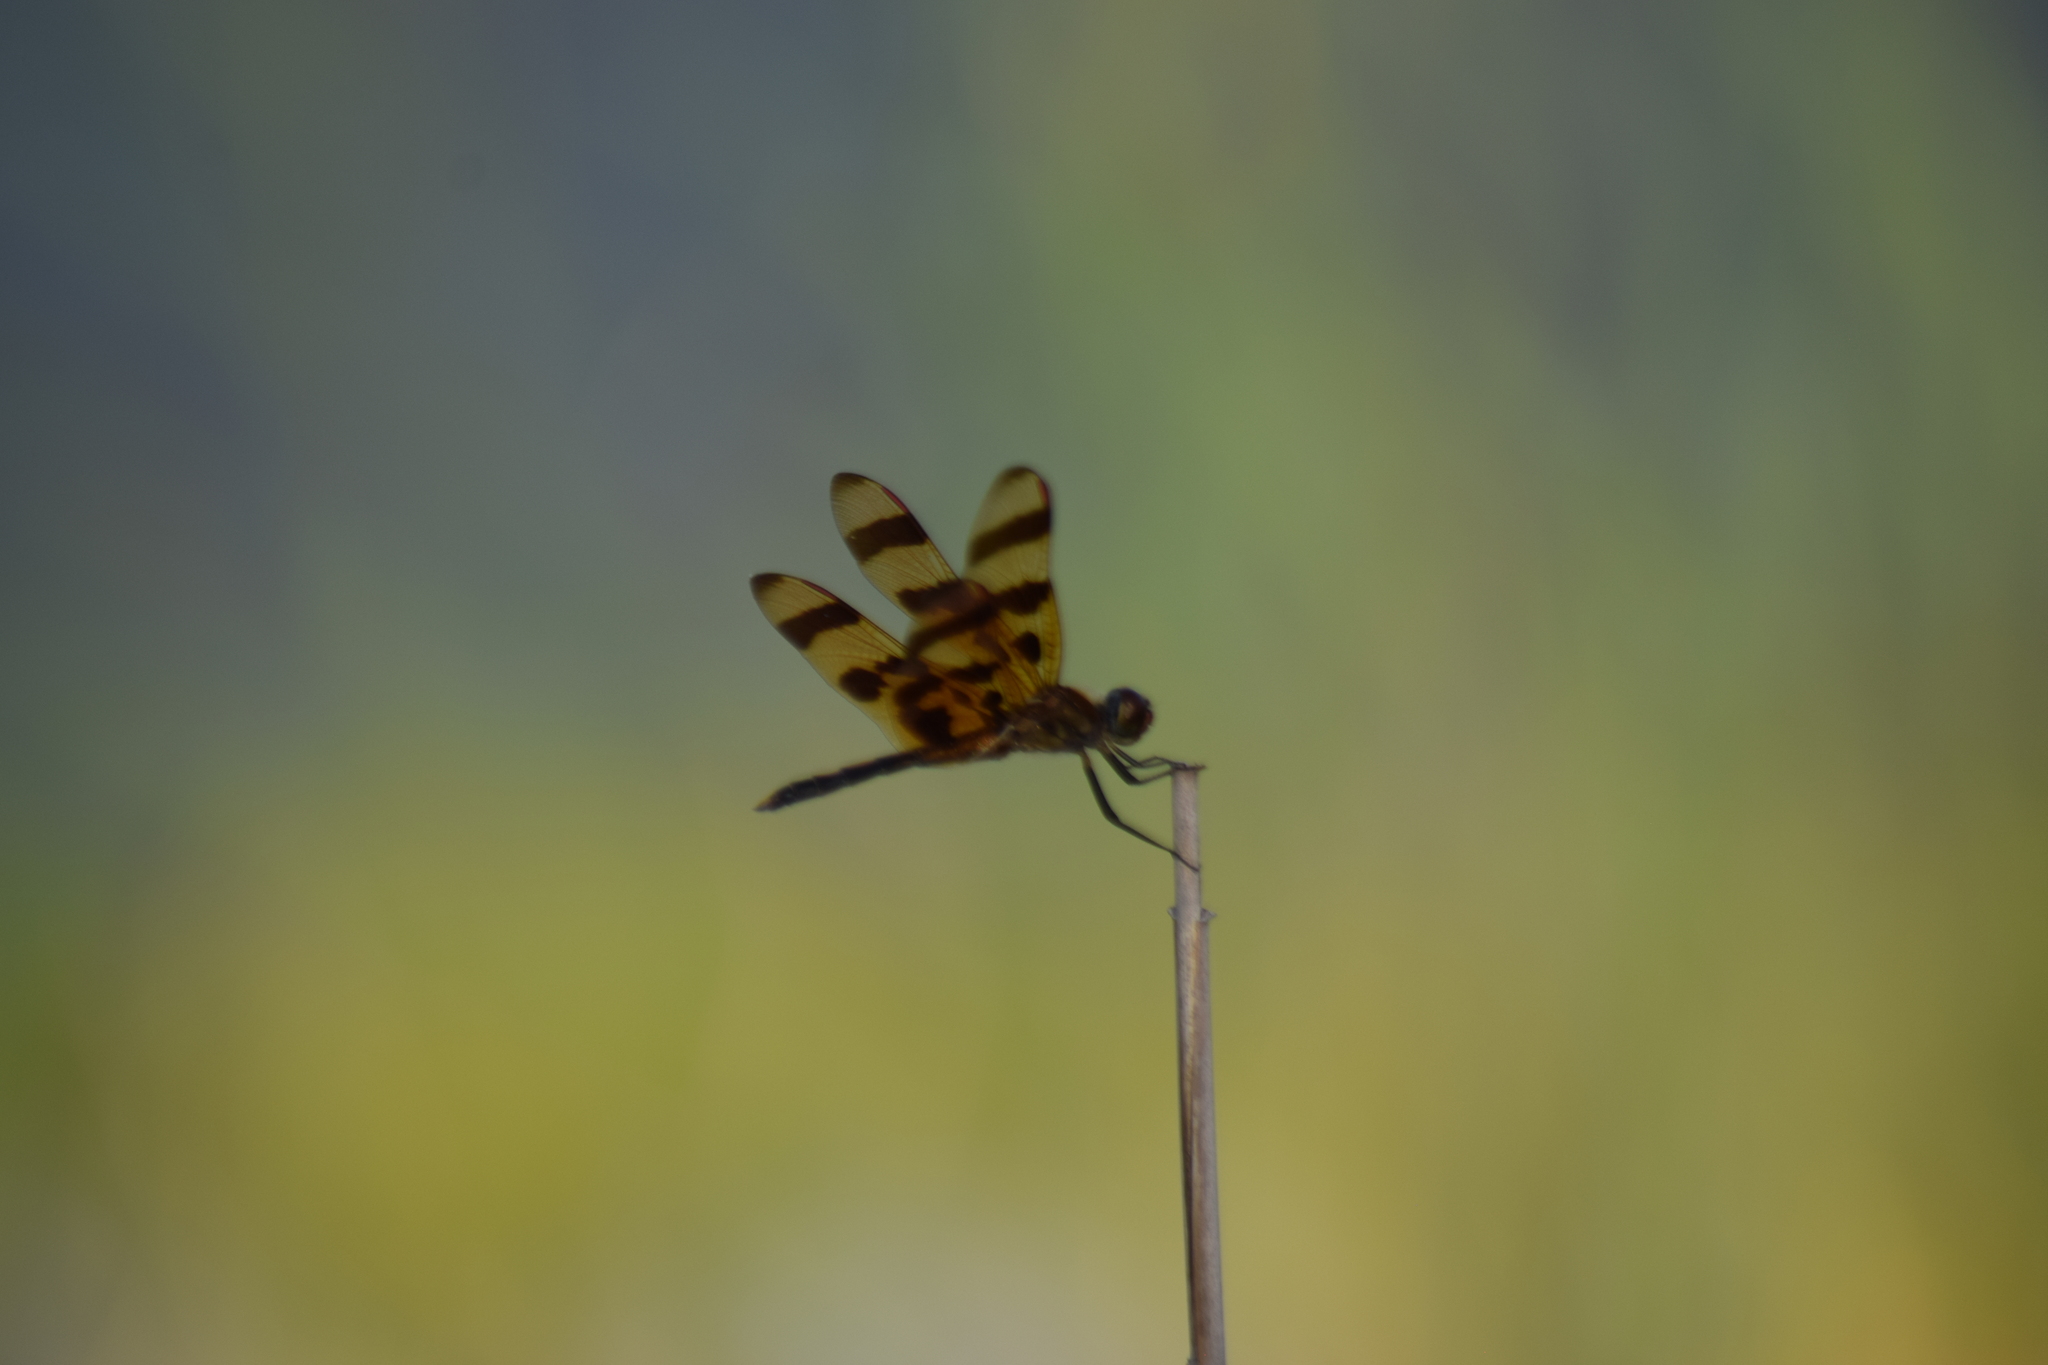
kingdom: Animalia
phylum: Arthropoda
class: Insecta
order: Odonata
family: Libellulidae
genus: Celithemis
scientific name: Celithemis eponina
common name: Halloween pennant
